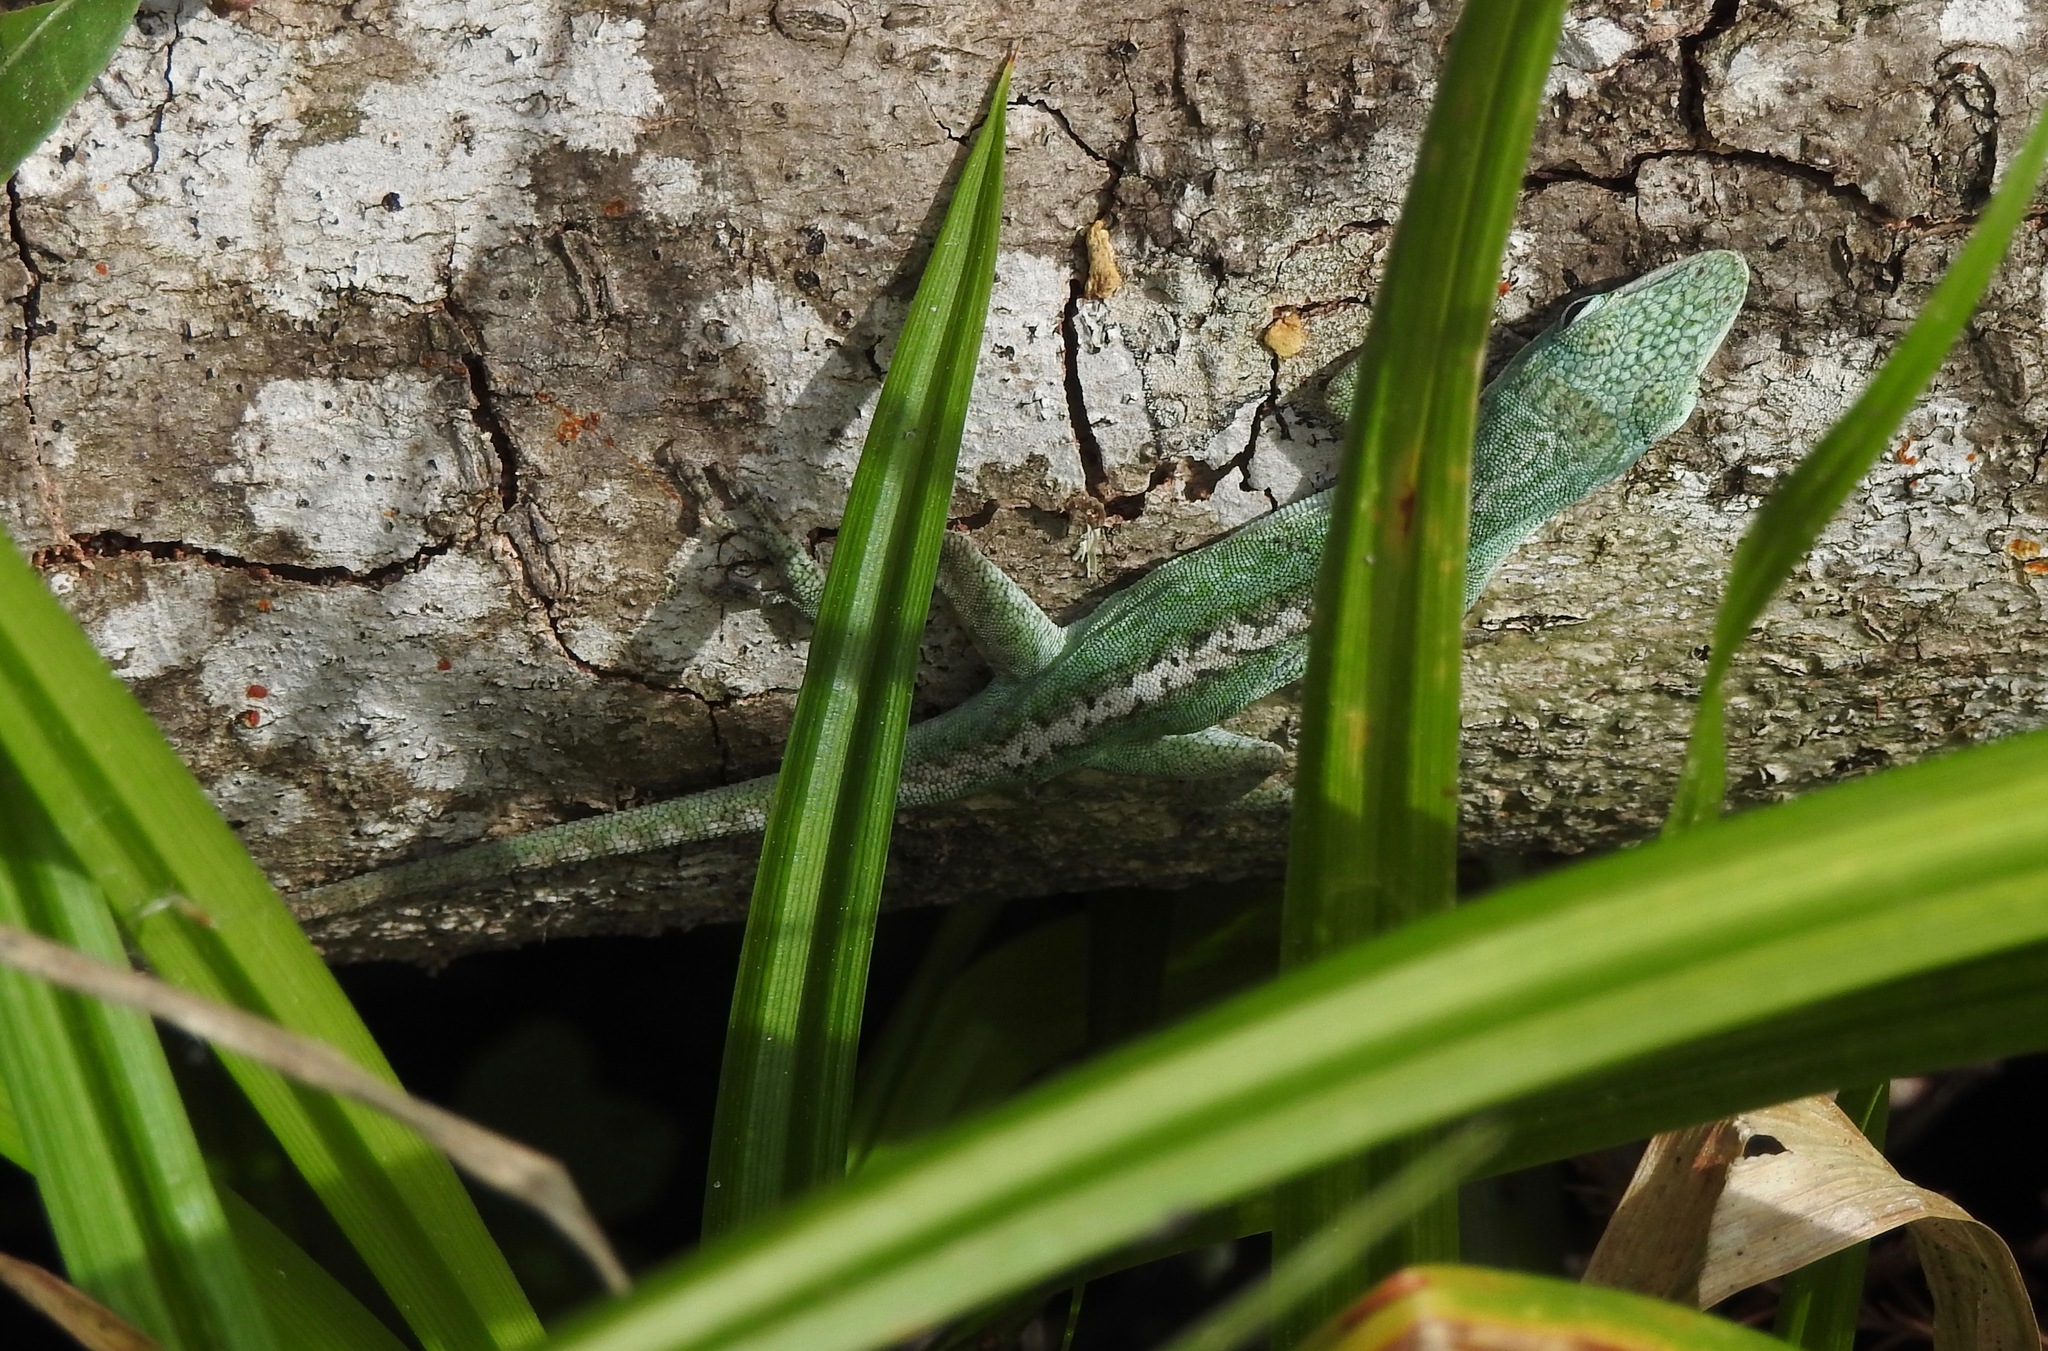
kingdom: Animalia
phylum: Chordata
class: Squamata
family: Dactyloidae
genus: Anolis
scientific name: Anolis carolinensis
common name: Green anole
